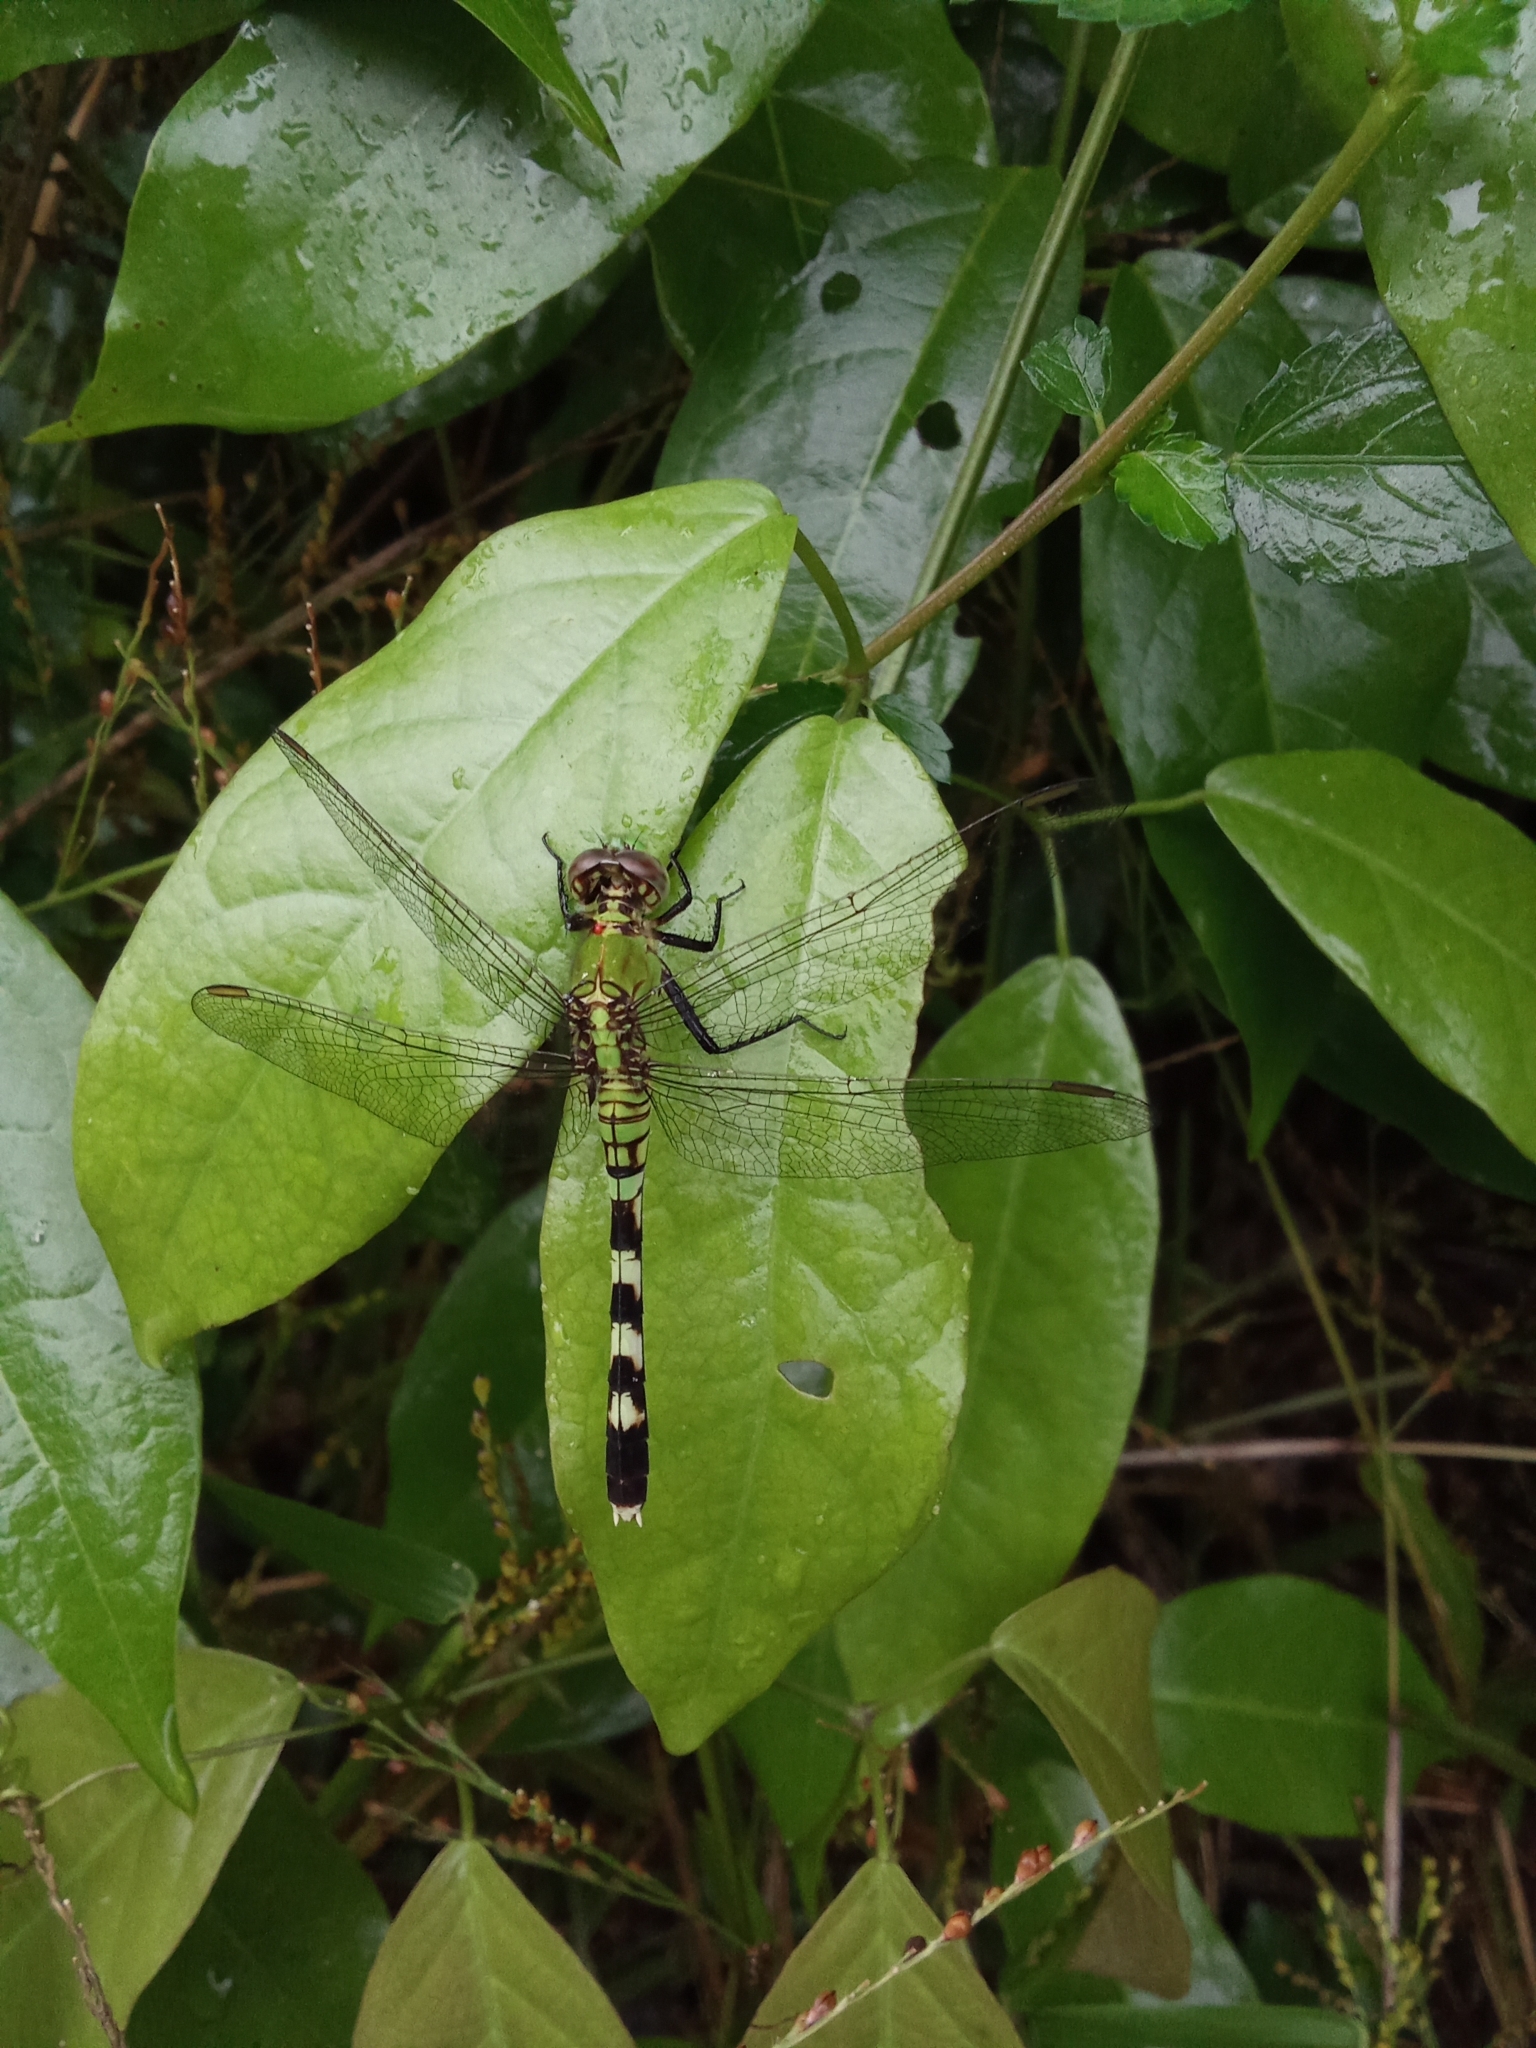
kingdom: Animalia
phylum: Arthropoda
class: Insecta
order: Odonata
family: Libellulidae
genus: Erythemis
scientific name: Erythemis simplicicollis
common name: Eastern pondhawk
